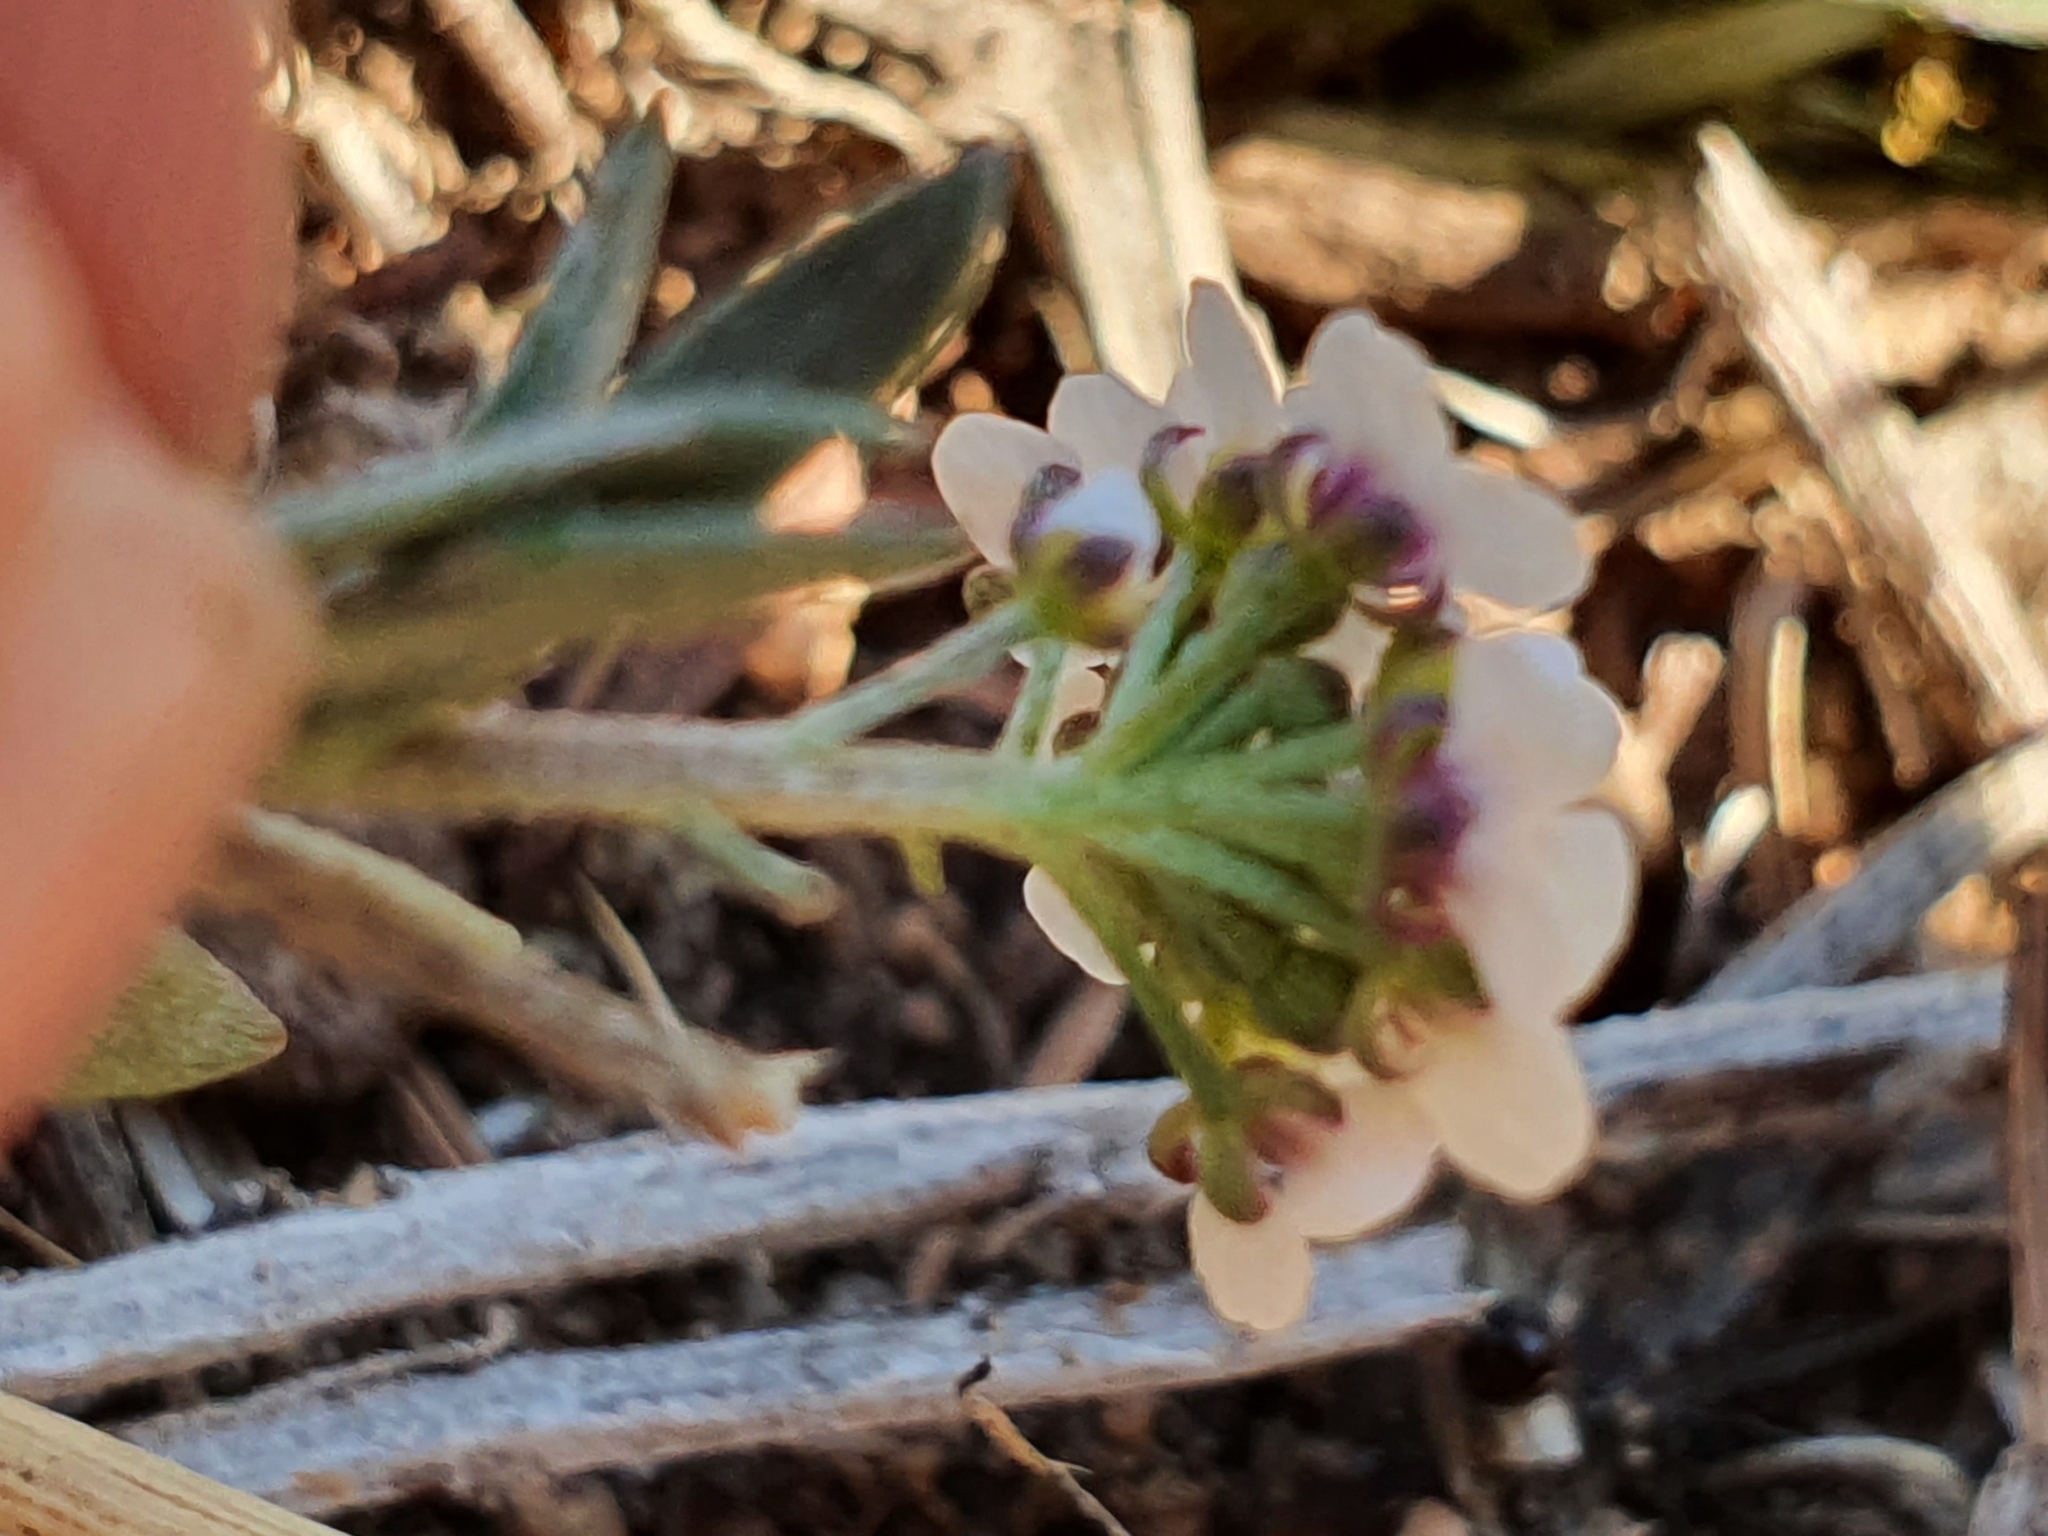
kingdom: Plantae
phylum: Tracheophyta
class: Magnoliopsida
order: Brassicales
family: Brassicaceae
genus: Lobularia
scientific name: Lobularia maritima
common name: Sweet alison
